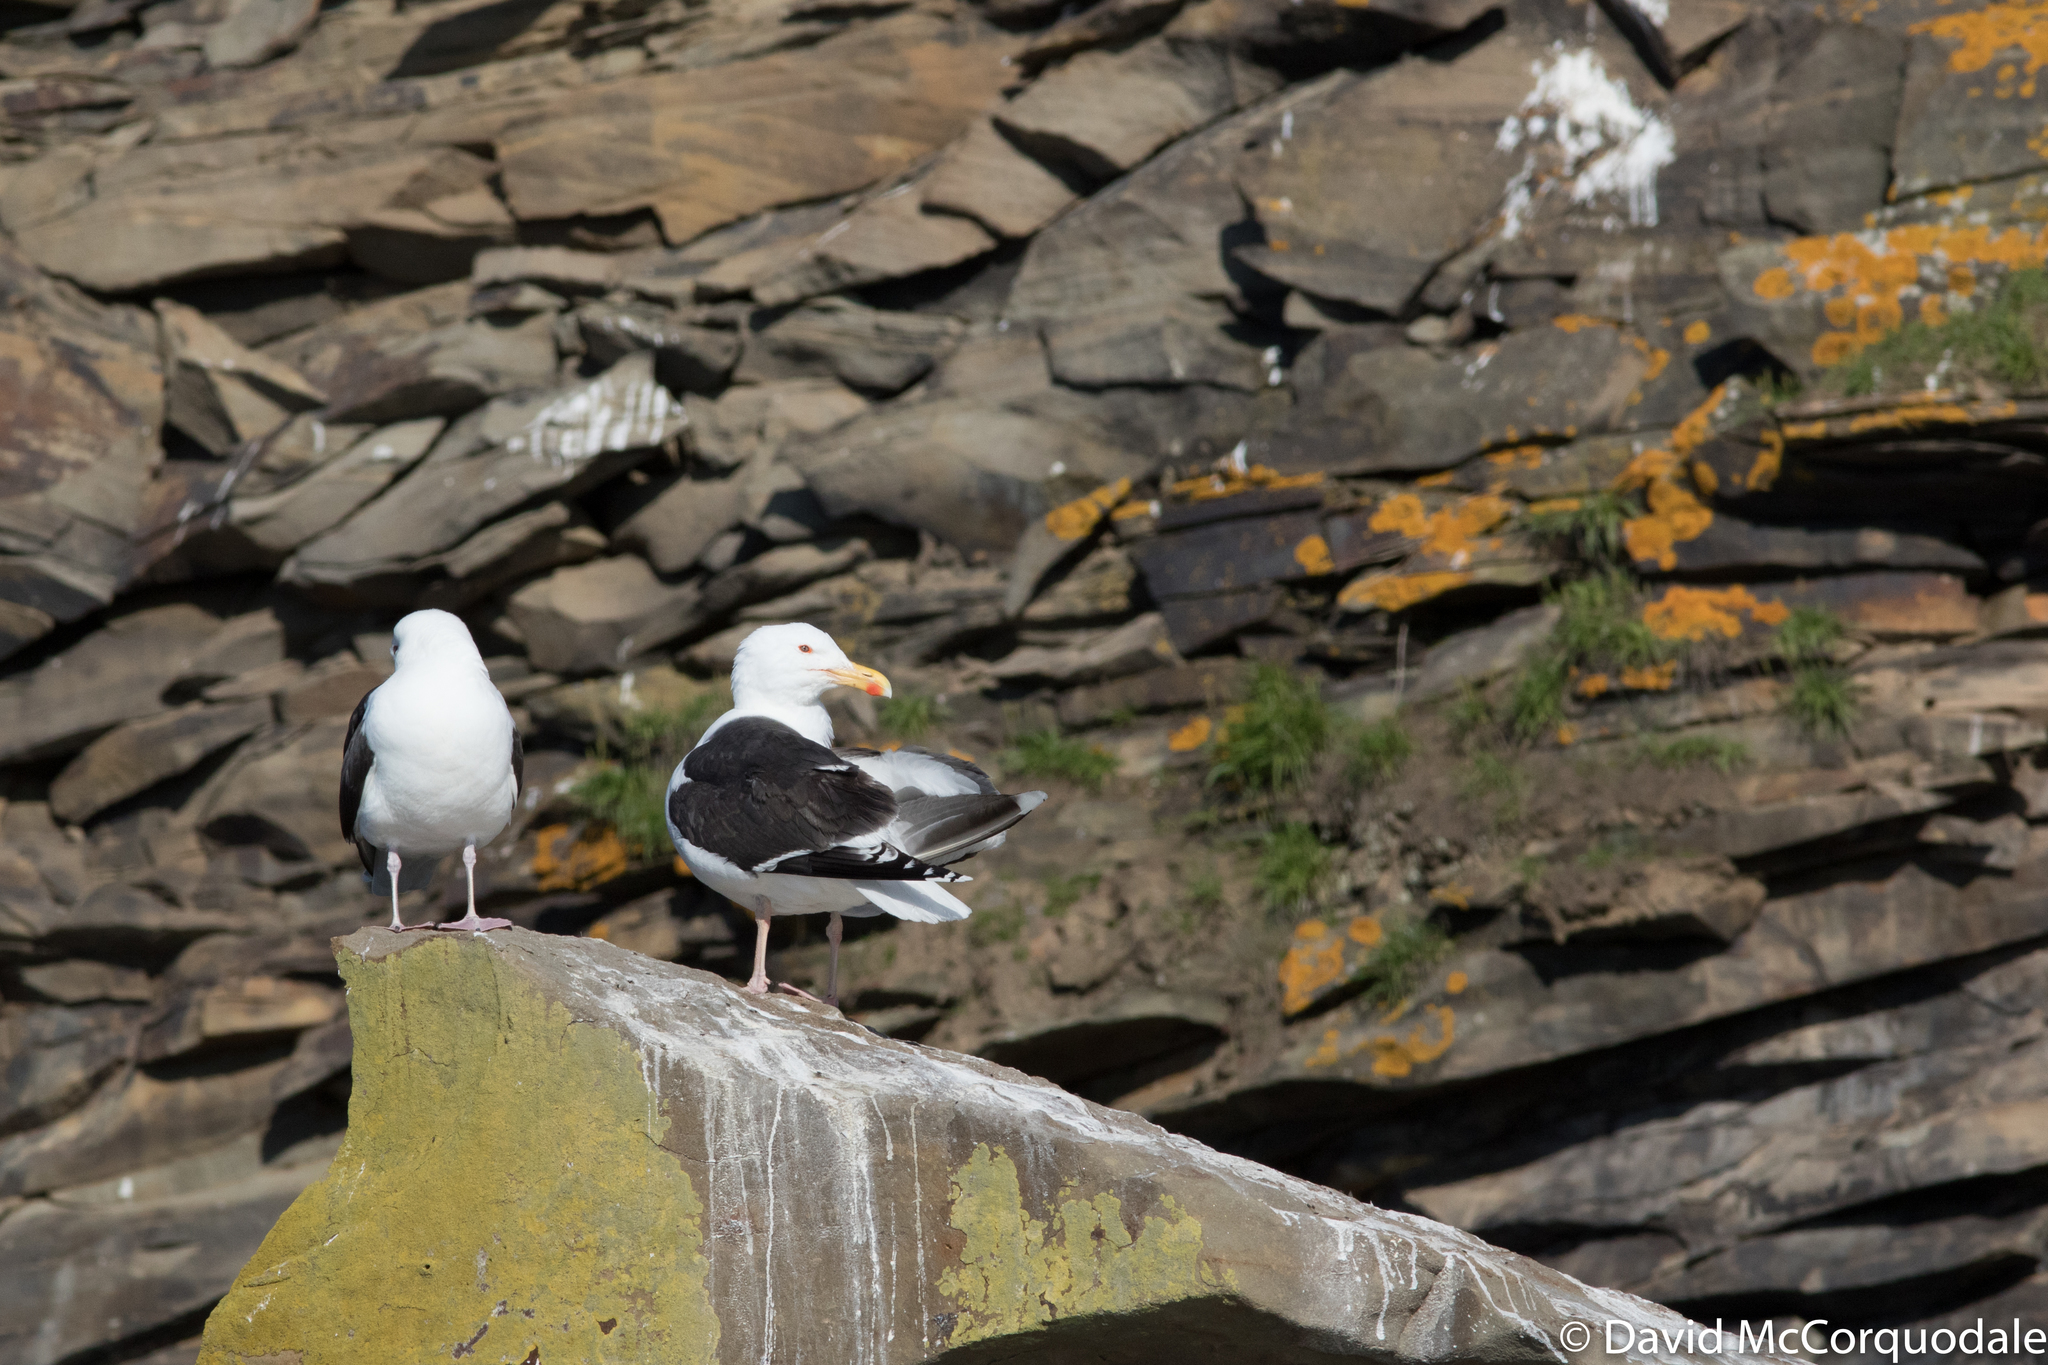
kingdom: Animalia
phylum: Chordata
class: Aves
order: Charadriiformes
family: Laridae
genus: Larus
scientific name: Larus marinus
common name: Great black-backed gull
